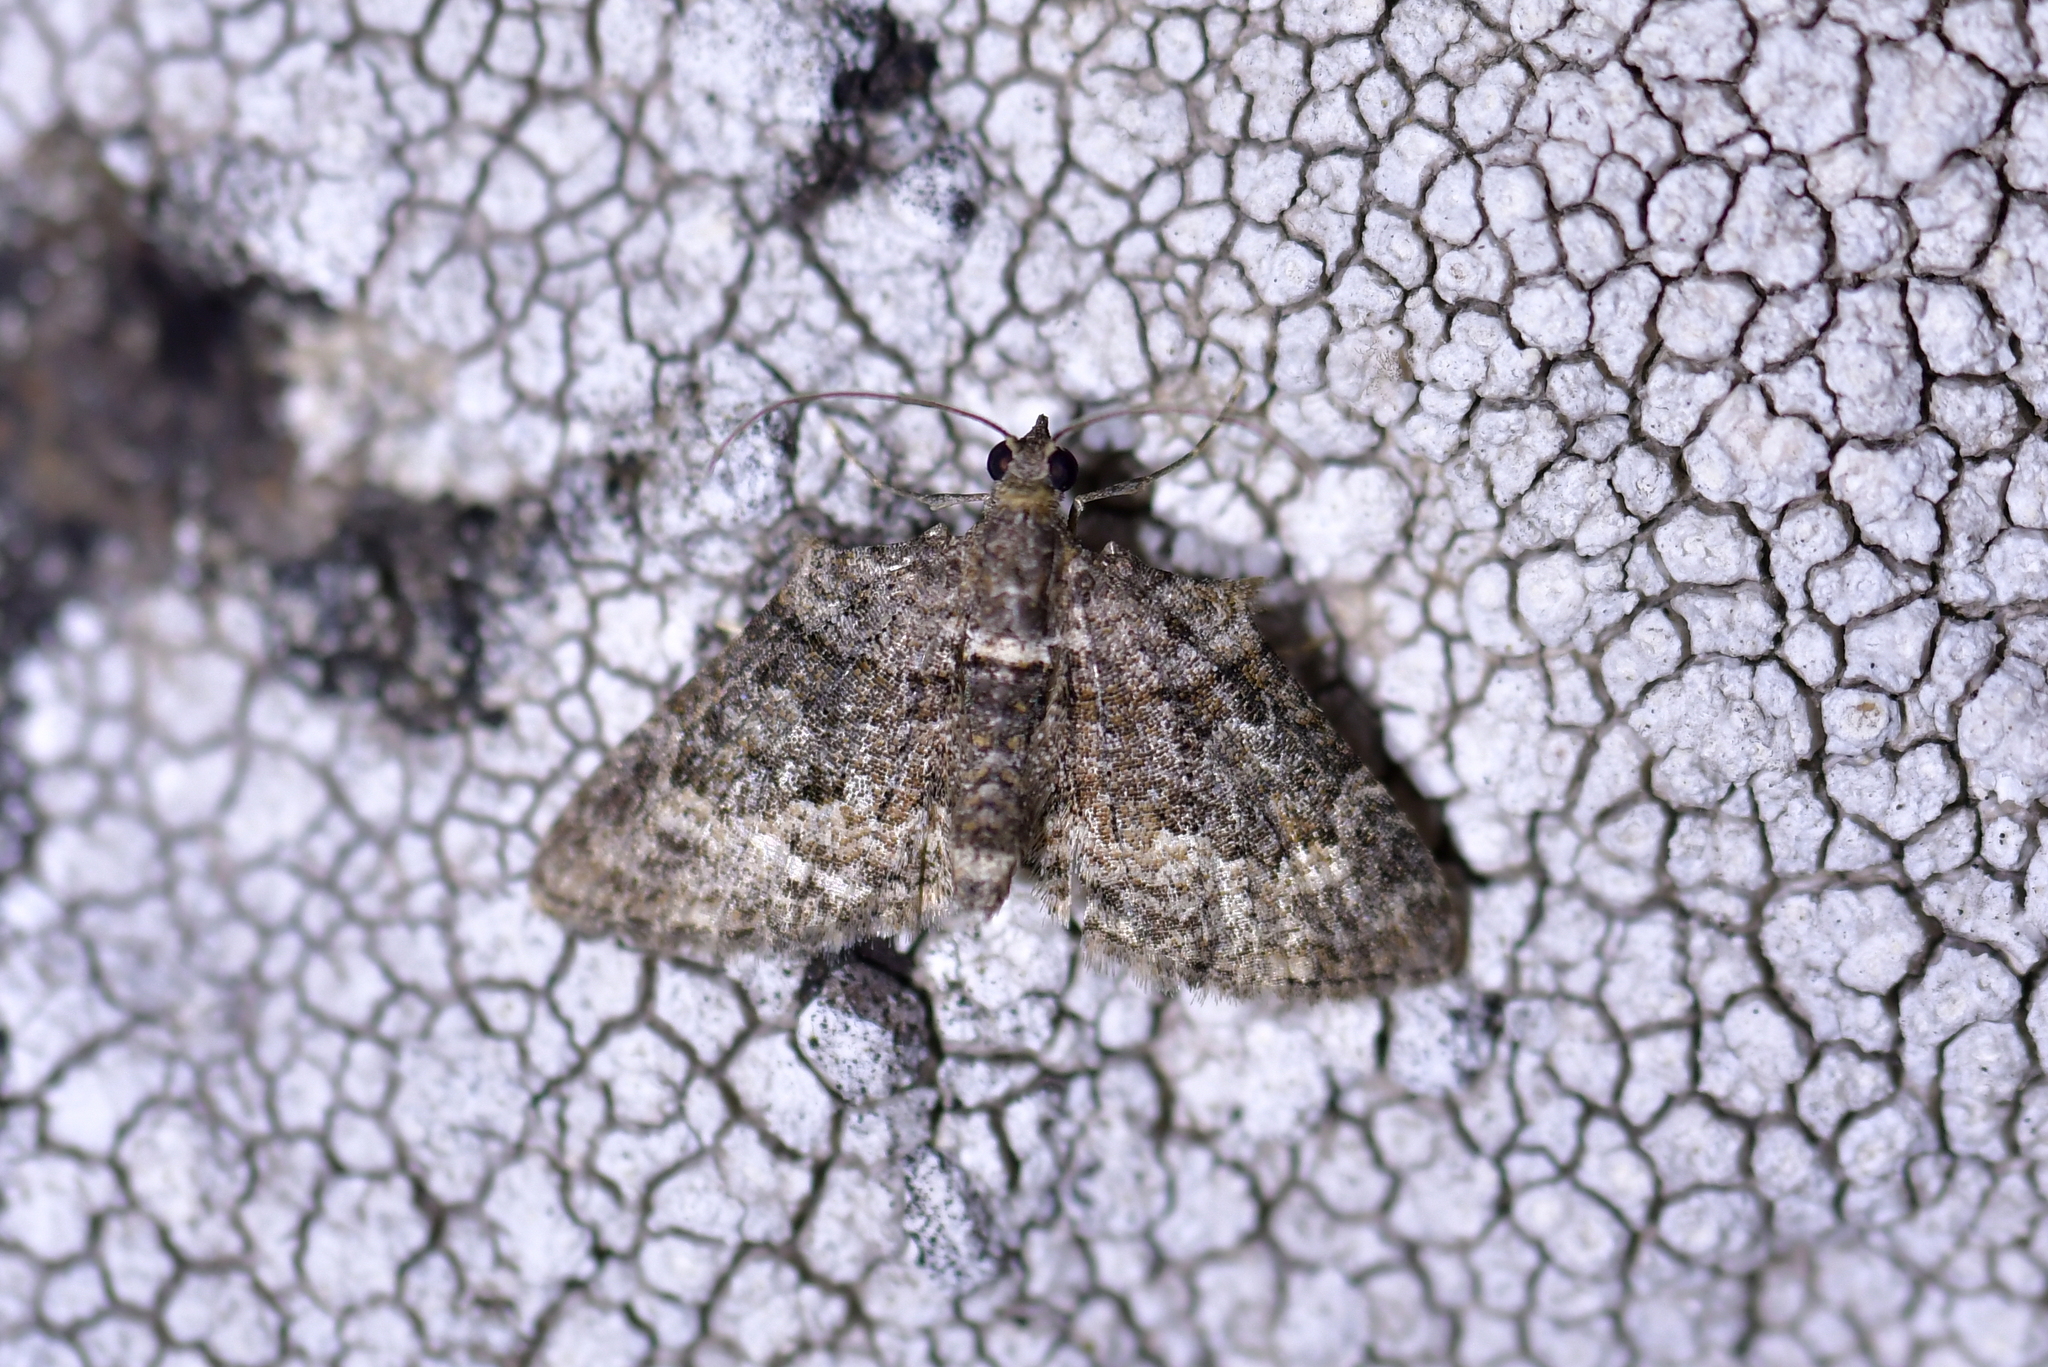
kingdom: Animalia
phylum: Arthropoda
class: Insecta
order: Lepidoptera
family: Geometridae
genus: Phrissogonus
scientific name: Phrissogonus laticostata
